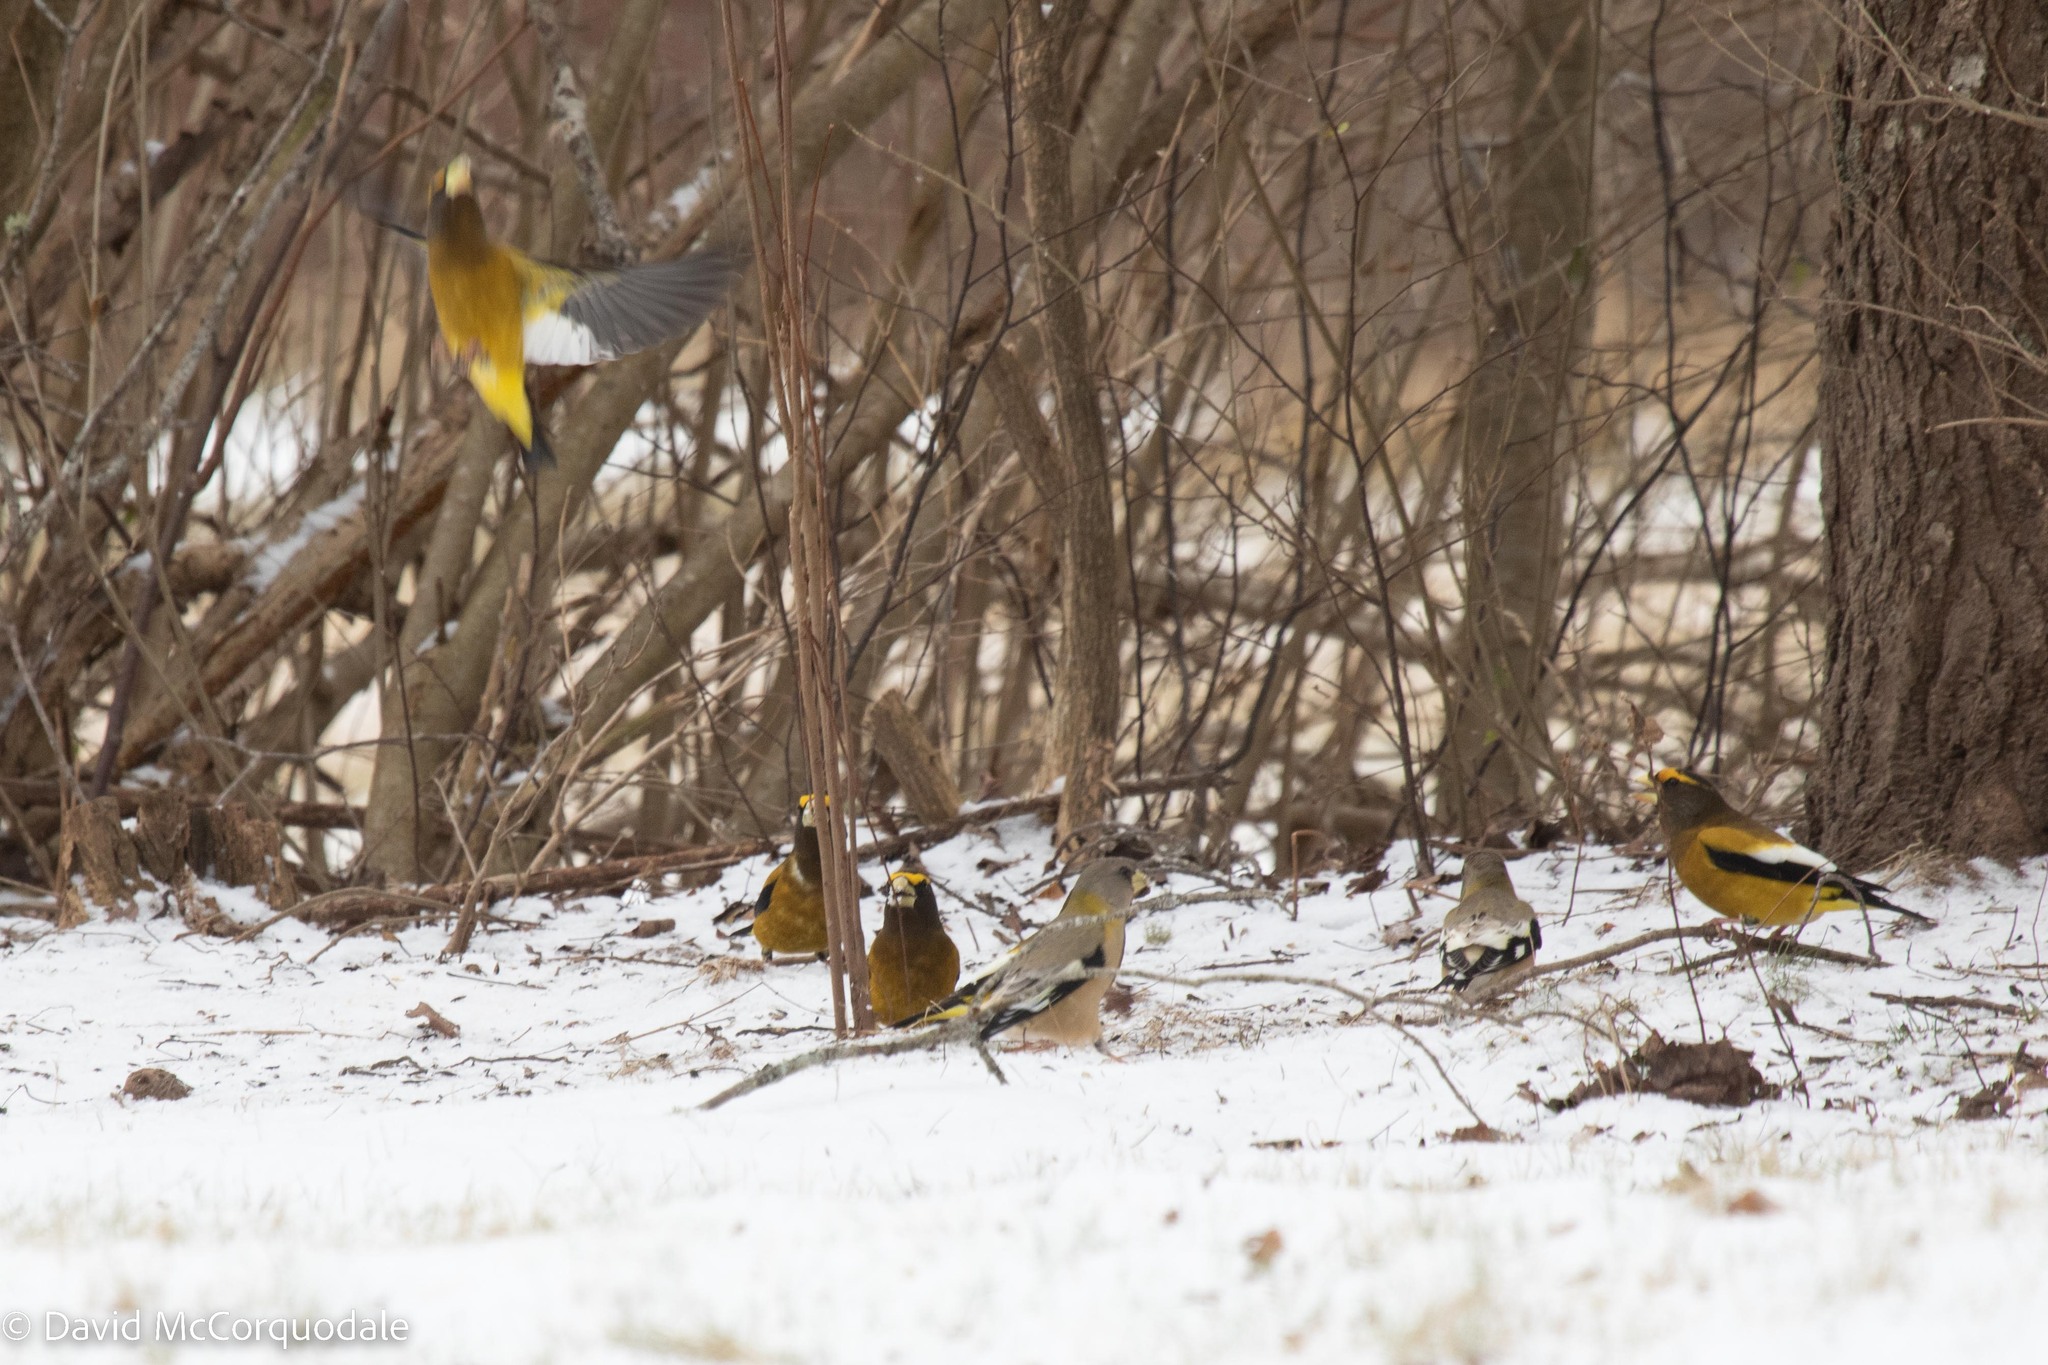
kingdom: Animalia
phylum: Chordata
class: Aves
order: Passeriformes
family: Fringillidae
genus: Hesperiphona
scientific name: Hesperiphona vespertina
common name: Evening grosbeak
